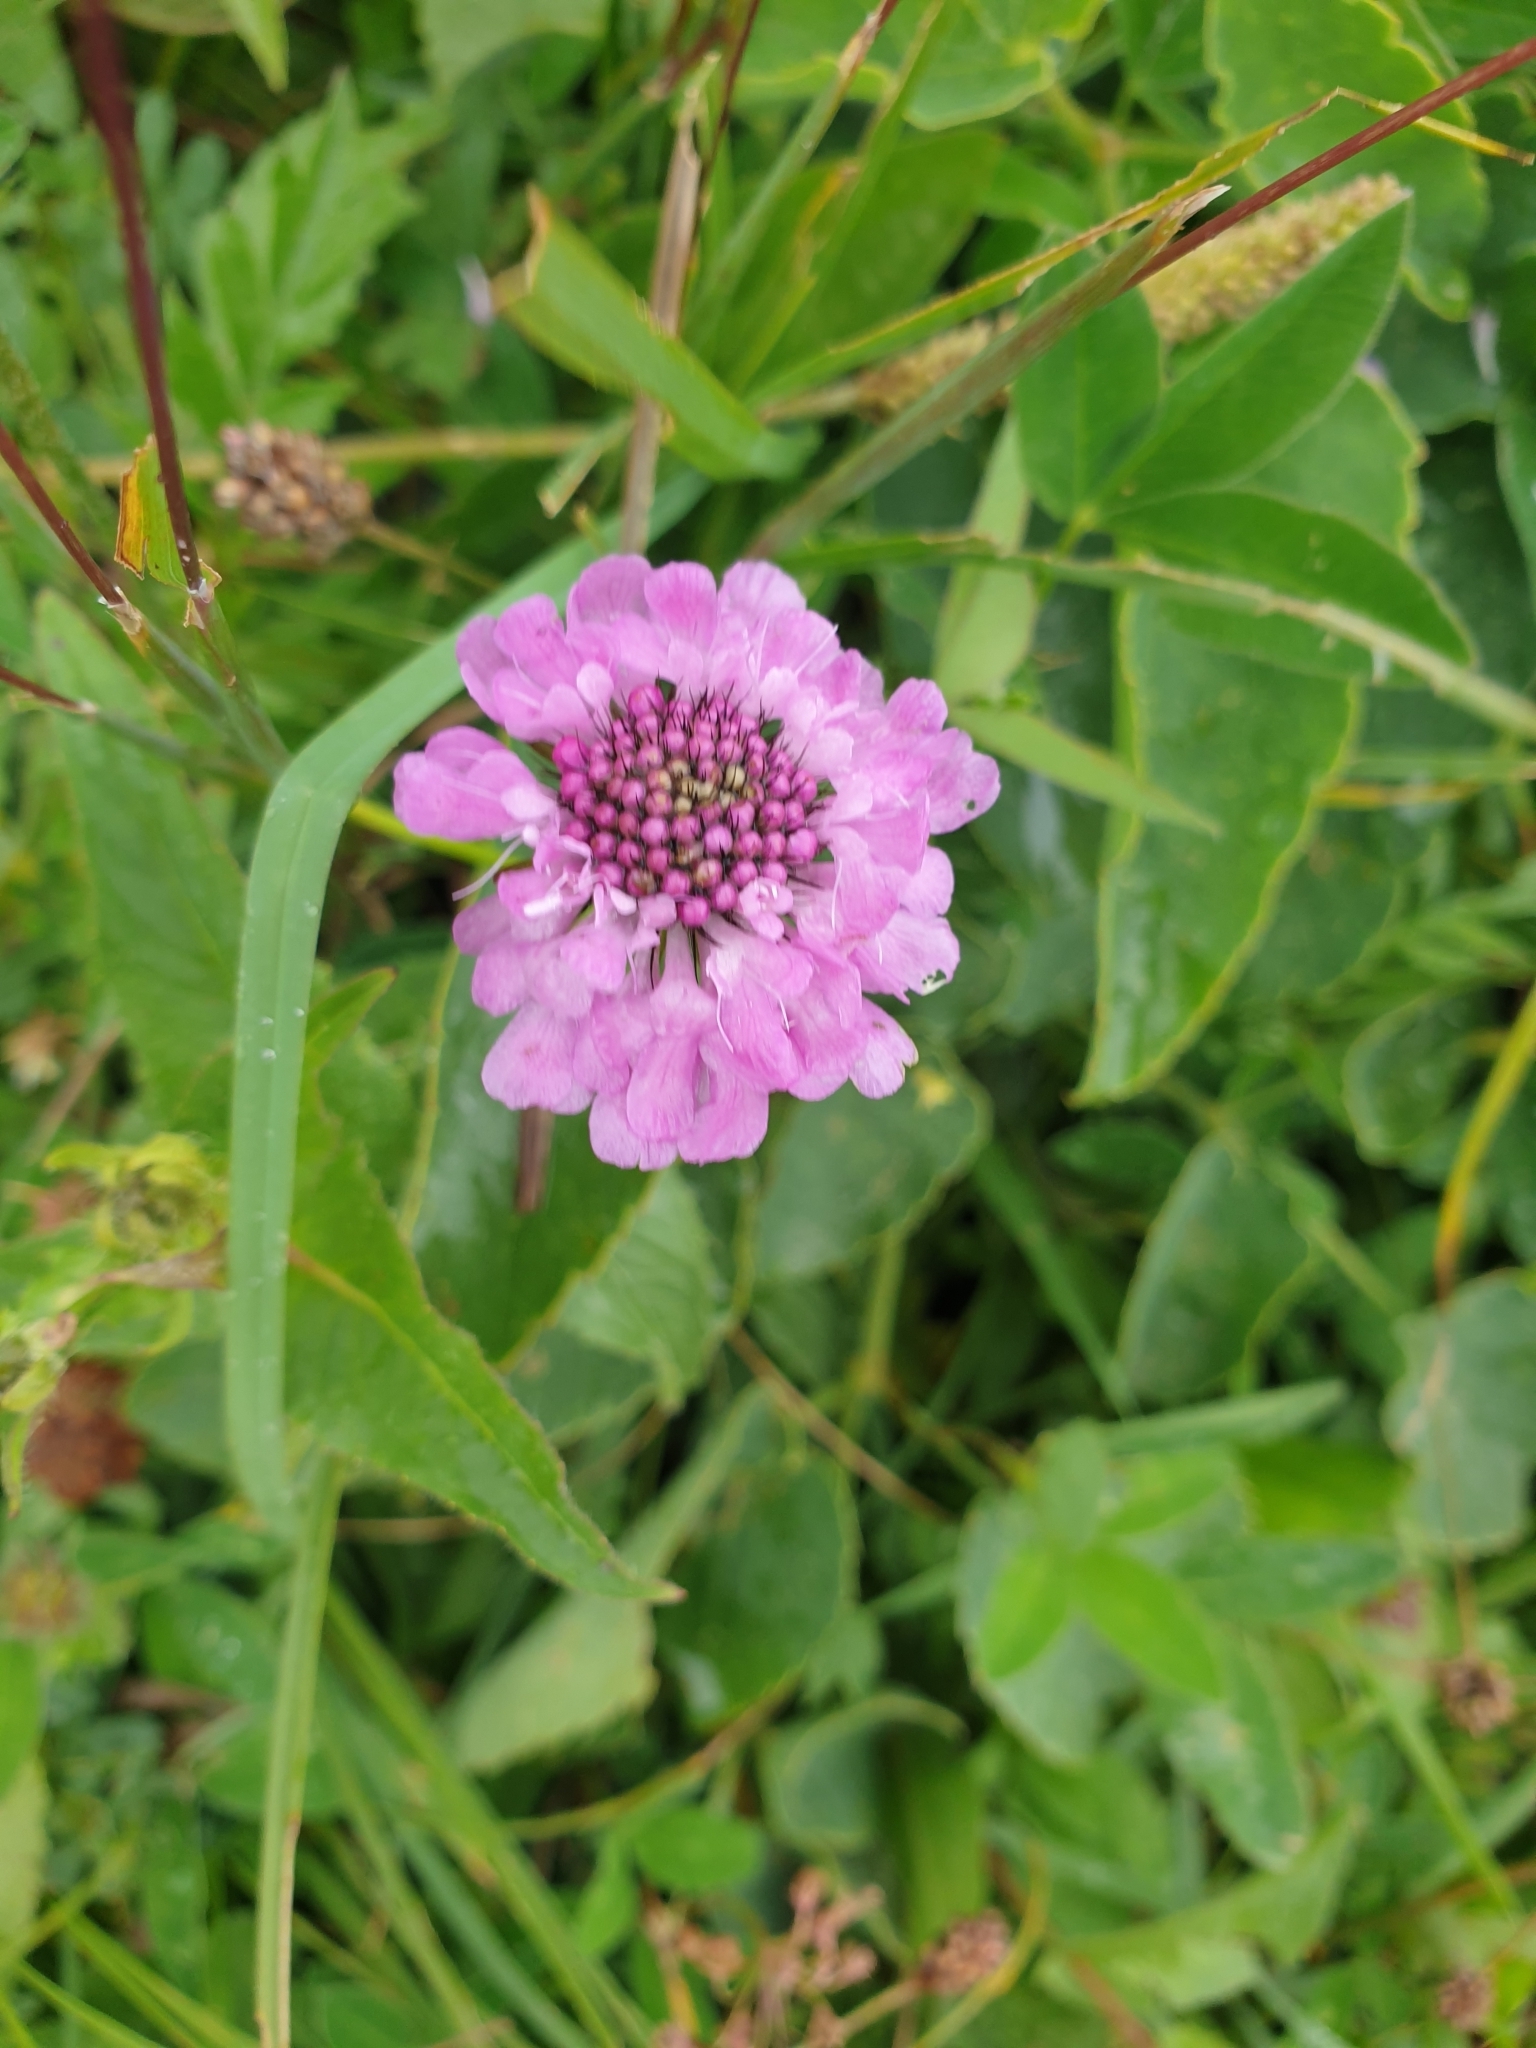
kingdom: Plantae
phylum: Tracheophyta
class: Magnoliopsida
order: Dipsacales
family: Caprifoliaceae
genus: Scabiosa
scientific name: Scabiosa lucida
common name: Shining scabious
